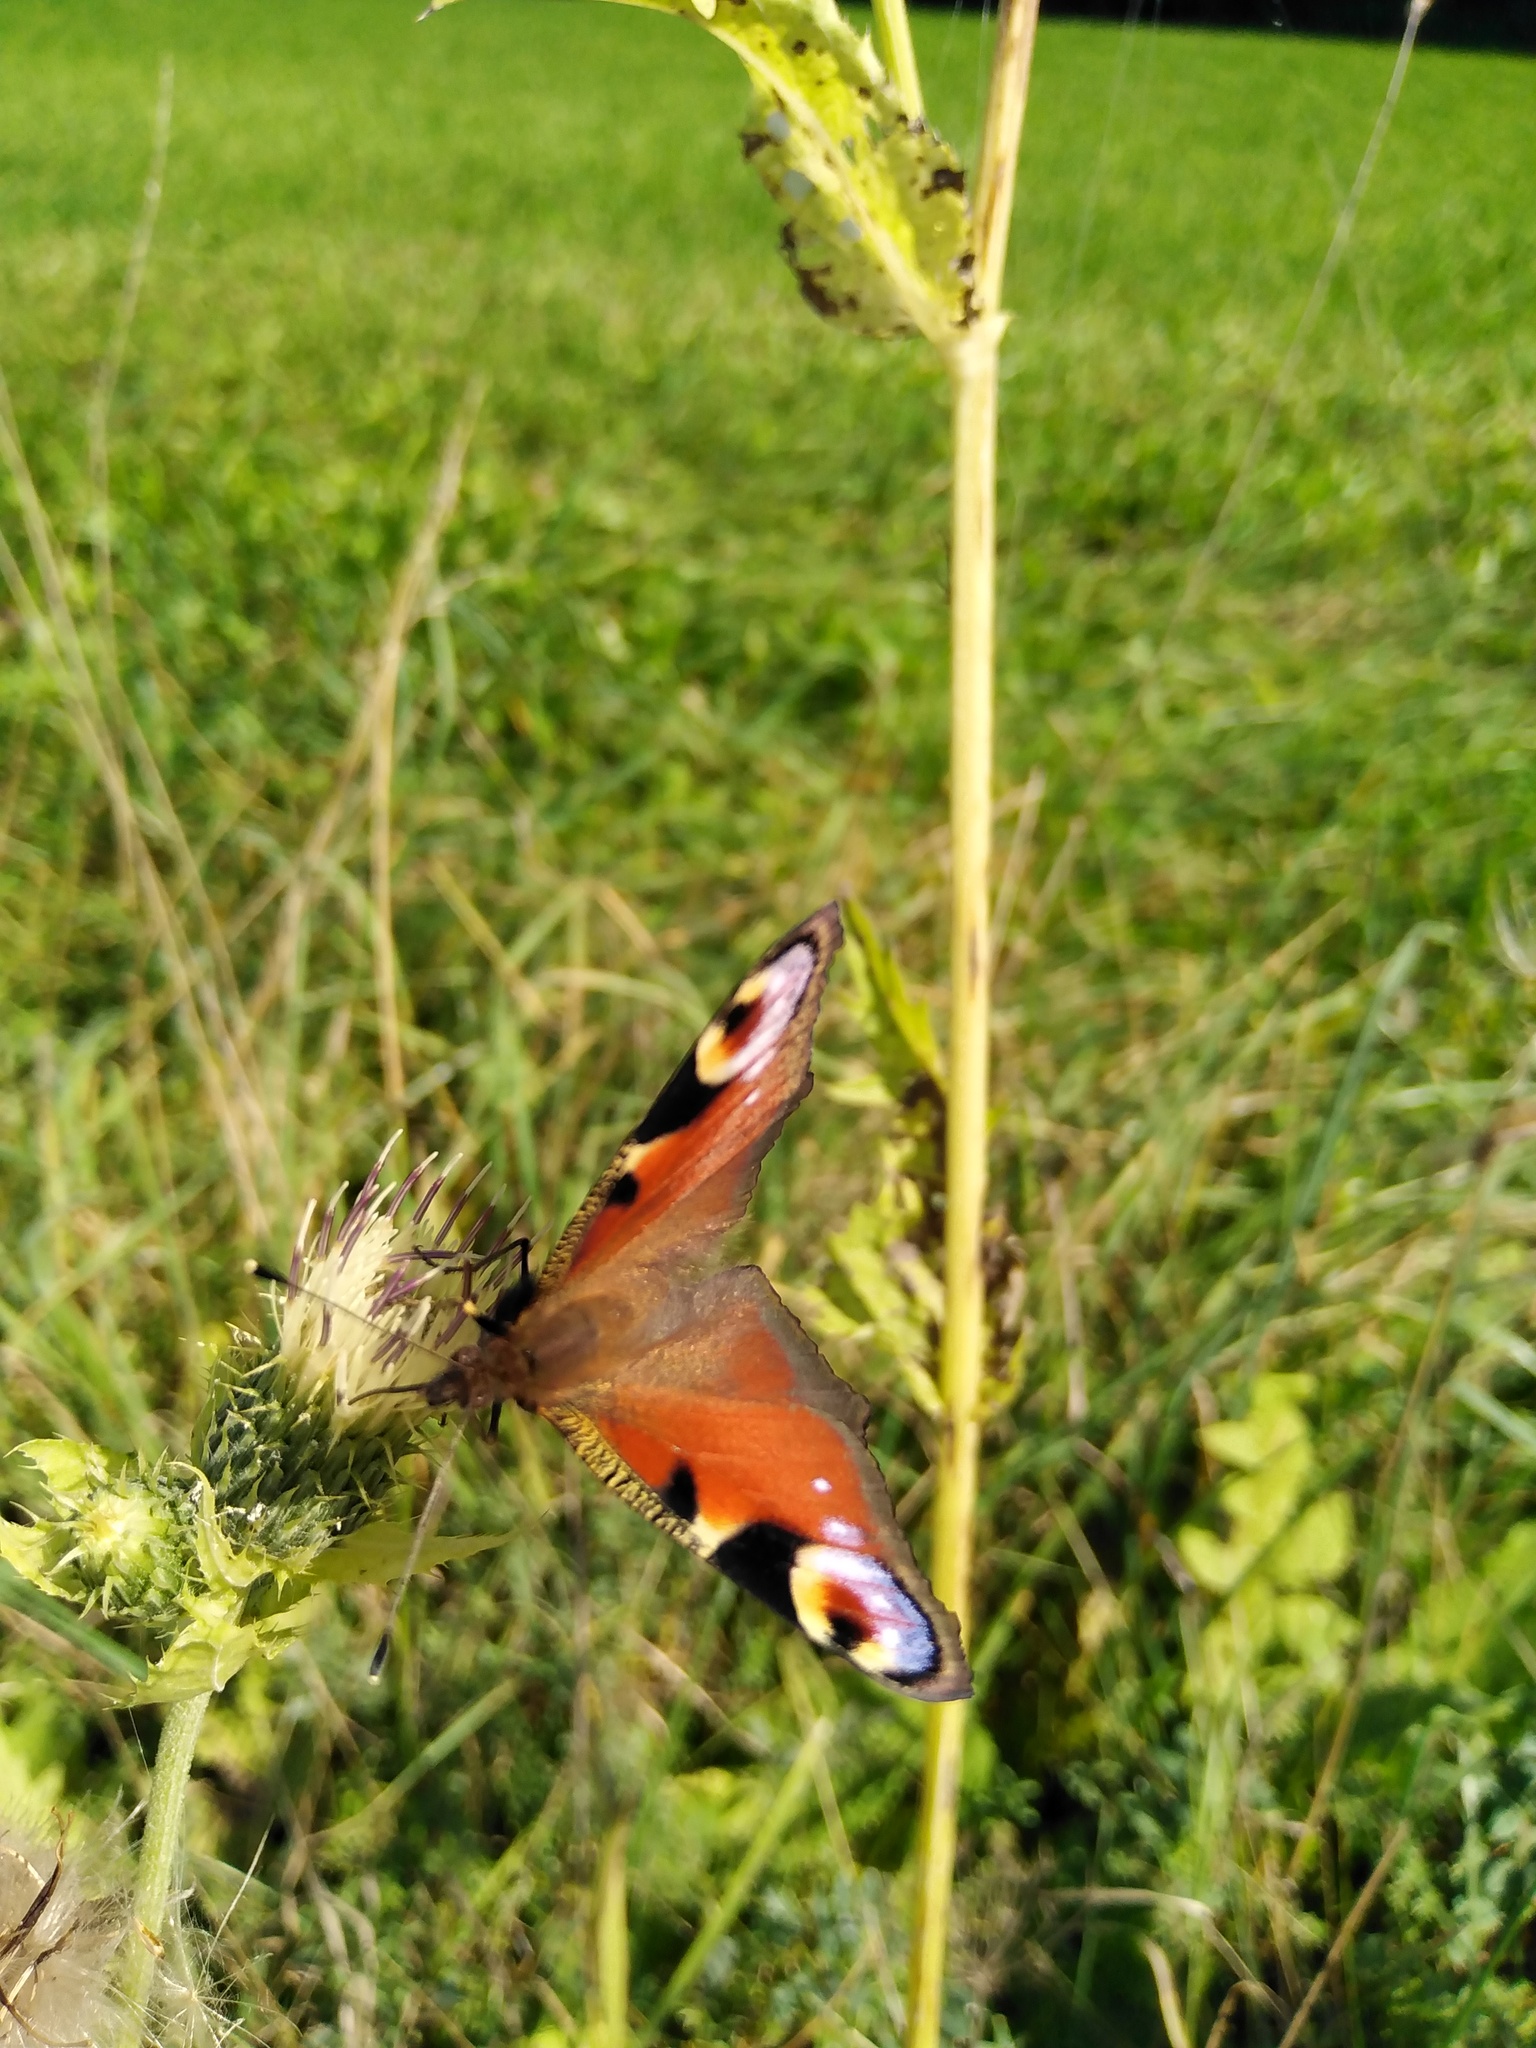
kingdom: Animalia
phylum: Arthropoda
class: Insecta
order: Lepidoptera
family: Nymphalidae
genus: Aglais
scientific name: Aglais io
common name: Peacock
